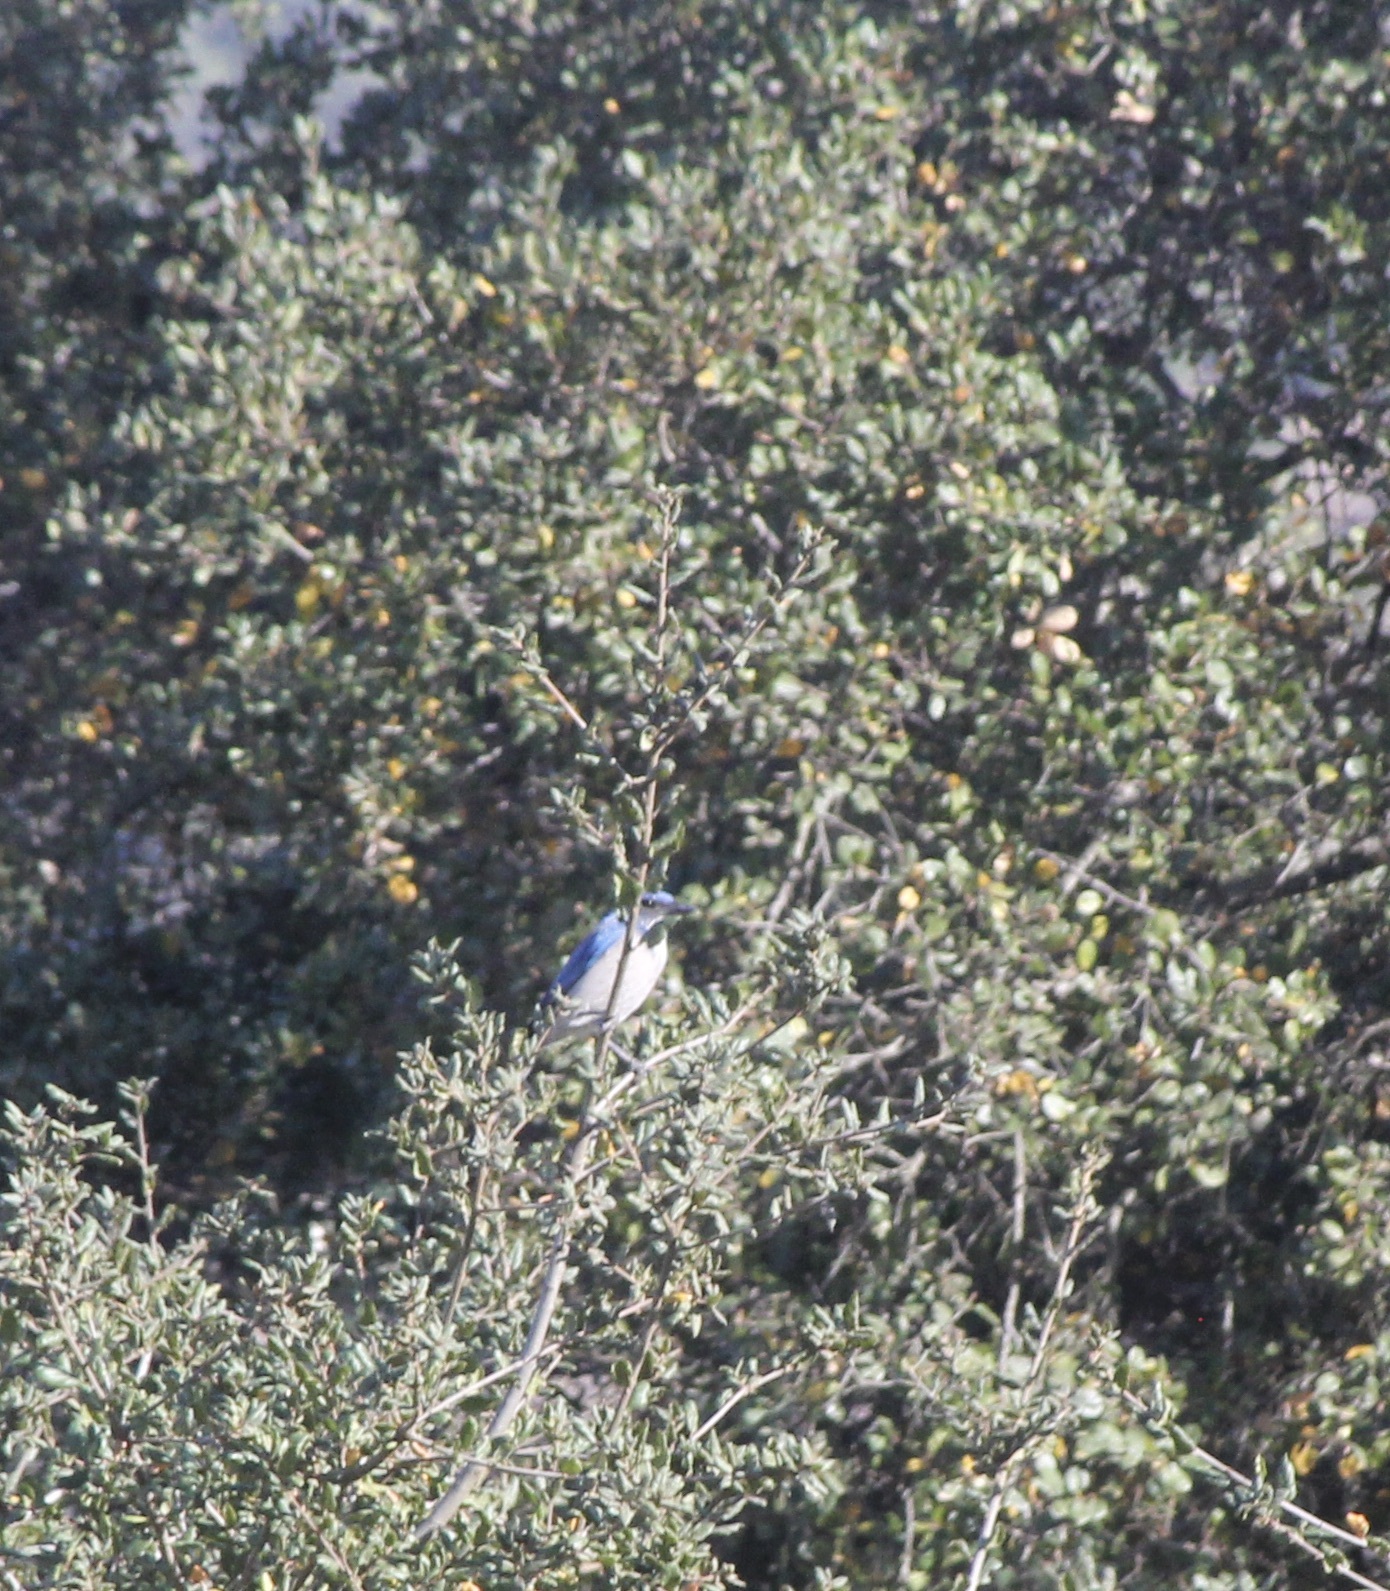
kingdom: Animalia
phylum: Chordata
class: Aves
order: Passeriformes
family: Corvidae
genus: Aphelocoma
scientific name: Aphelocoma californica
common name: California scrub-jay
